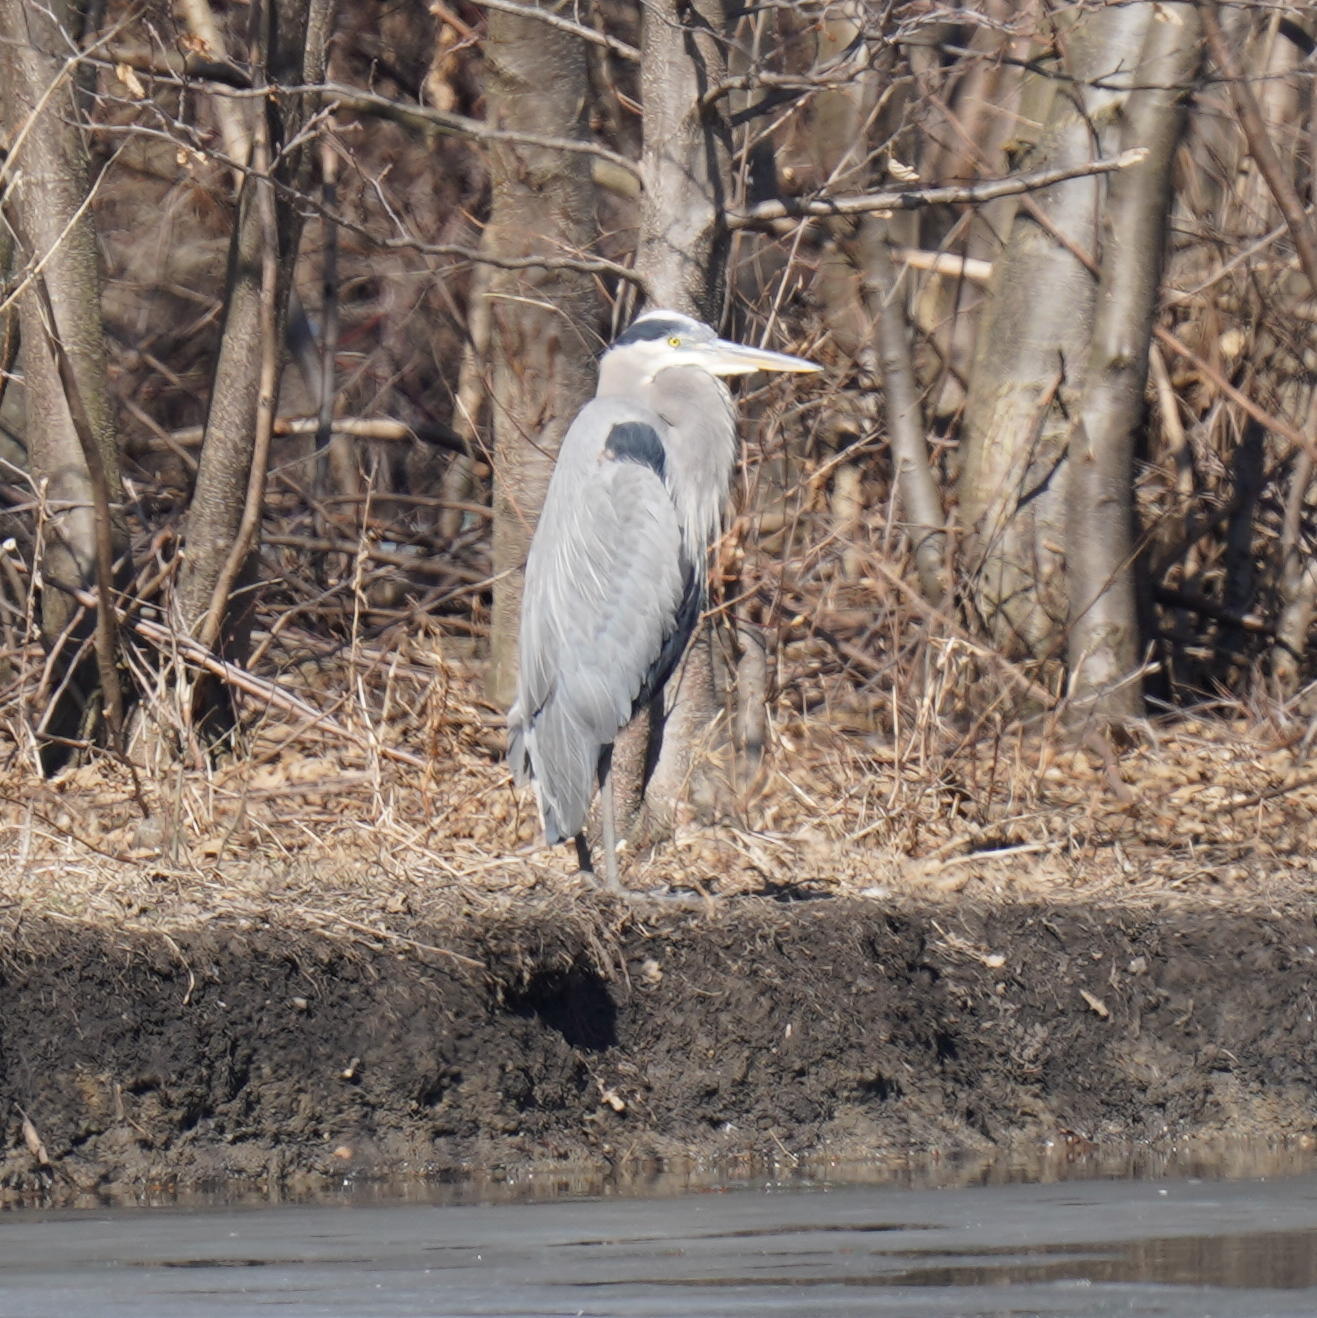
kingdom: Animalia
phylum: Chordata
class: Aves
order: Pelecaniformes
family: Ardeidae
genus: Ardea
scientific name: Ardea herodias
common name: Great blue heron
